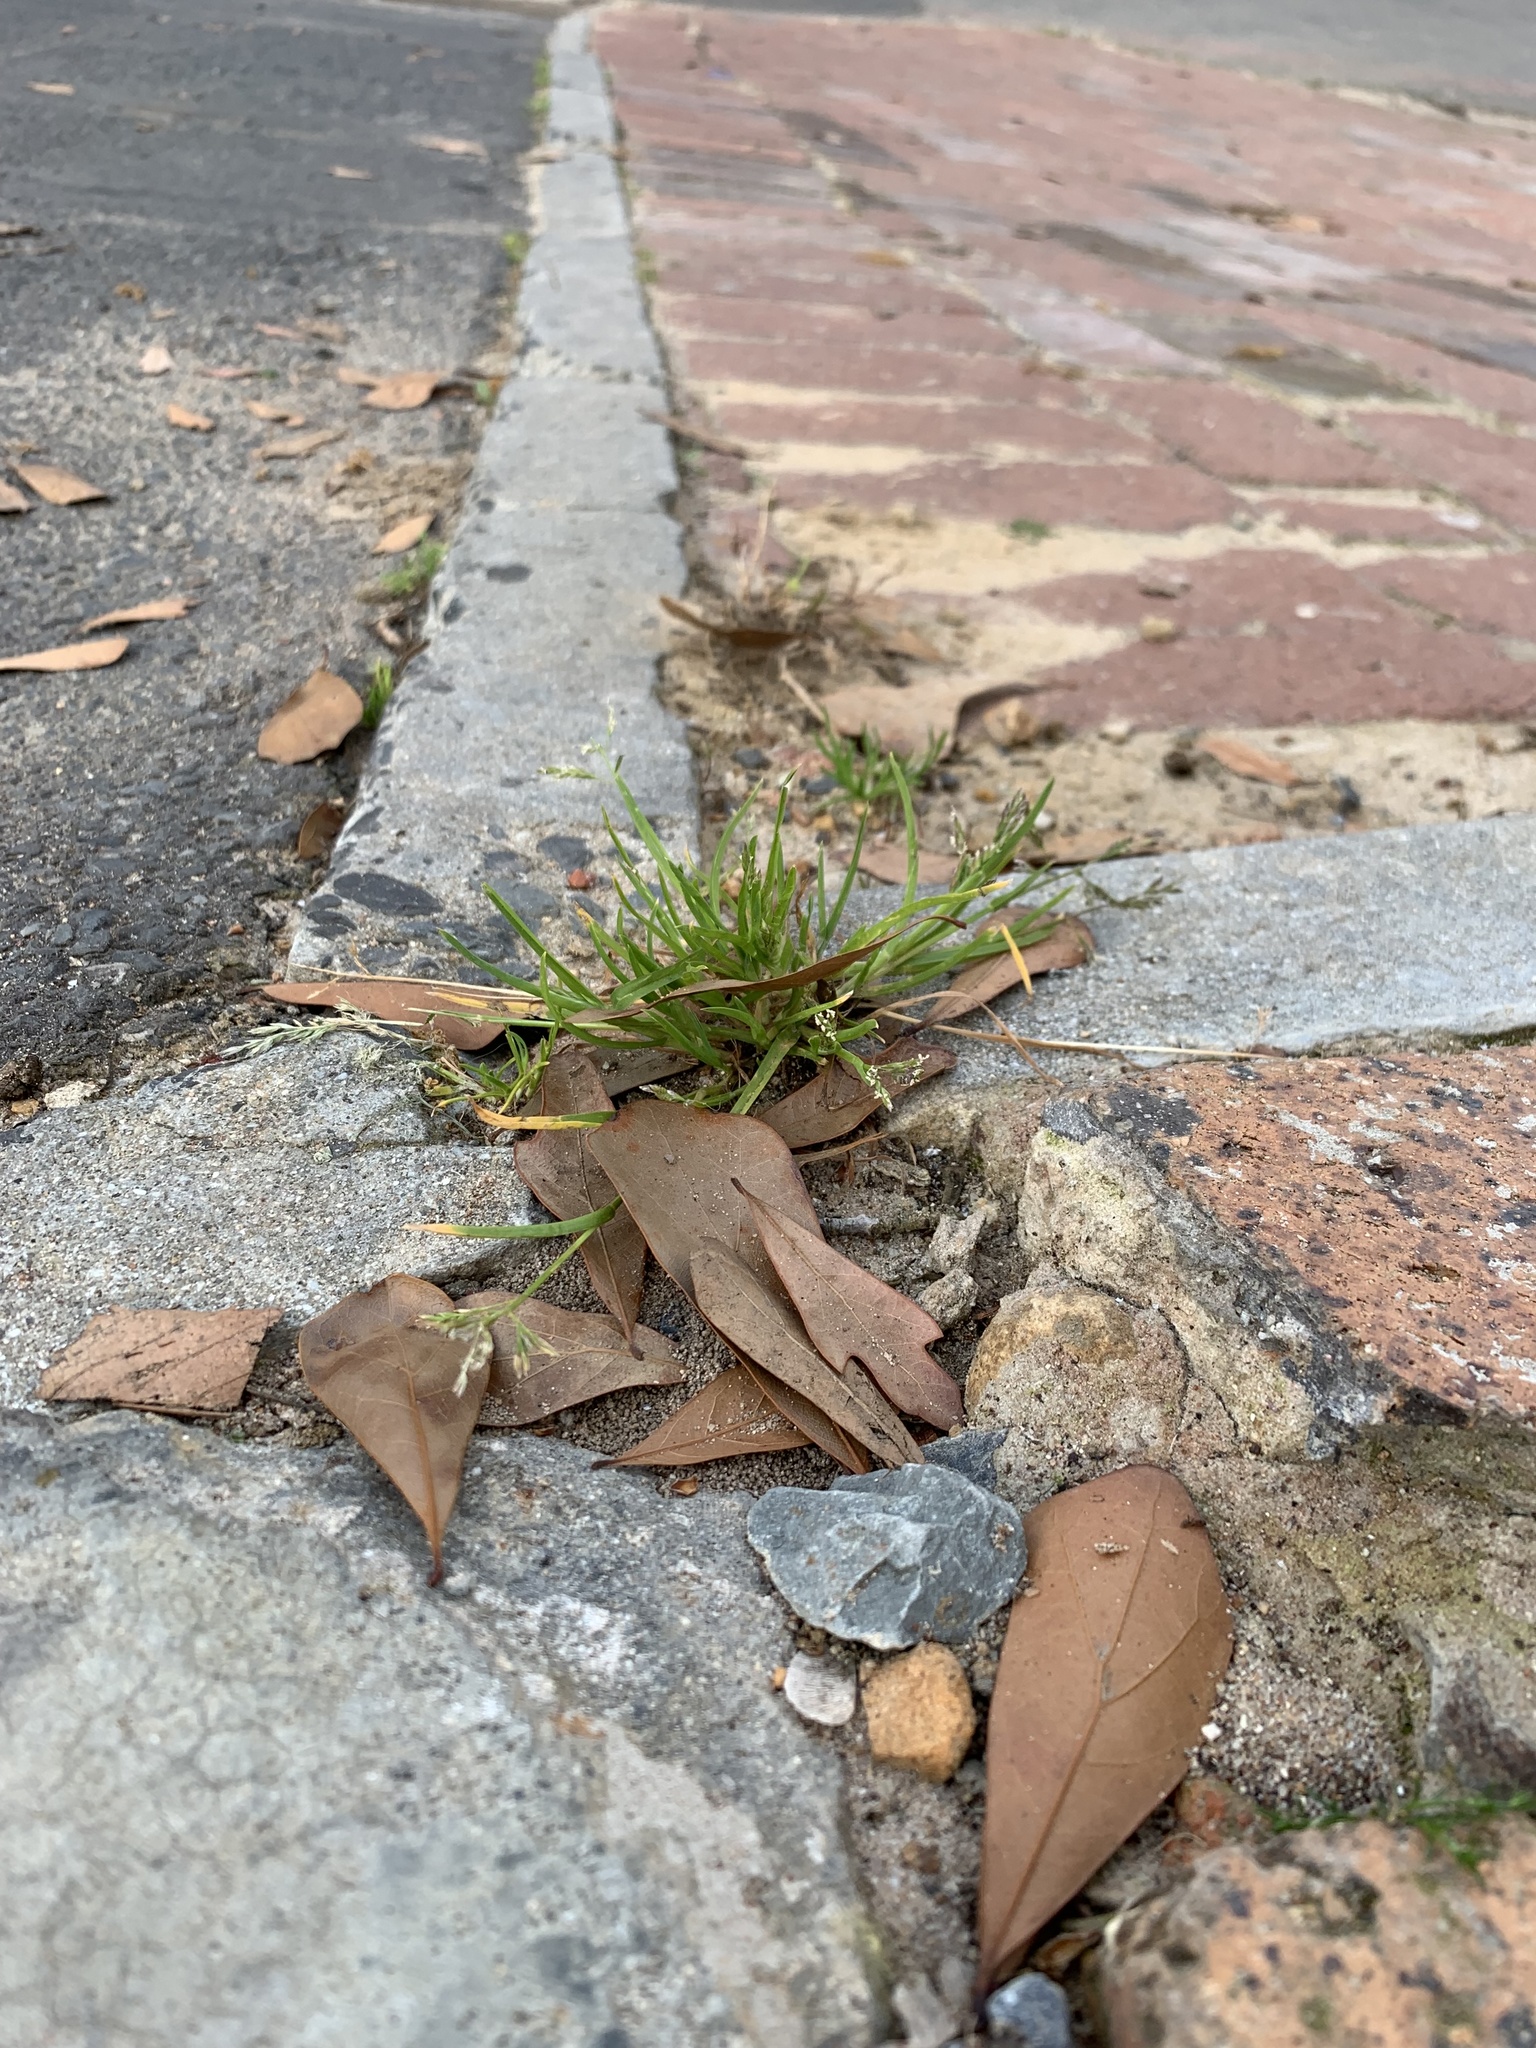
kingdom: Plantae
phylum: Tracheophyta
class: Liliopsida
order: Poales
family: Poaceae
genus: Poa
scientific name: Poa annua
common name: Annual bluegrass
